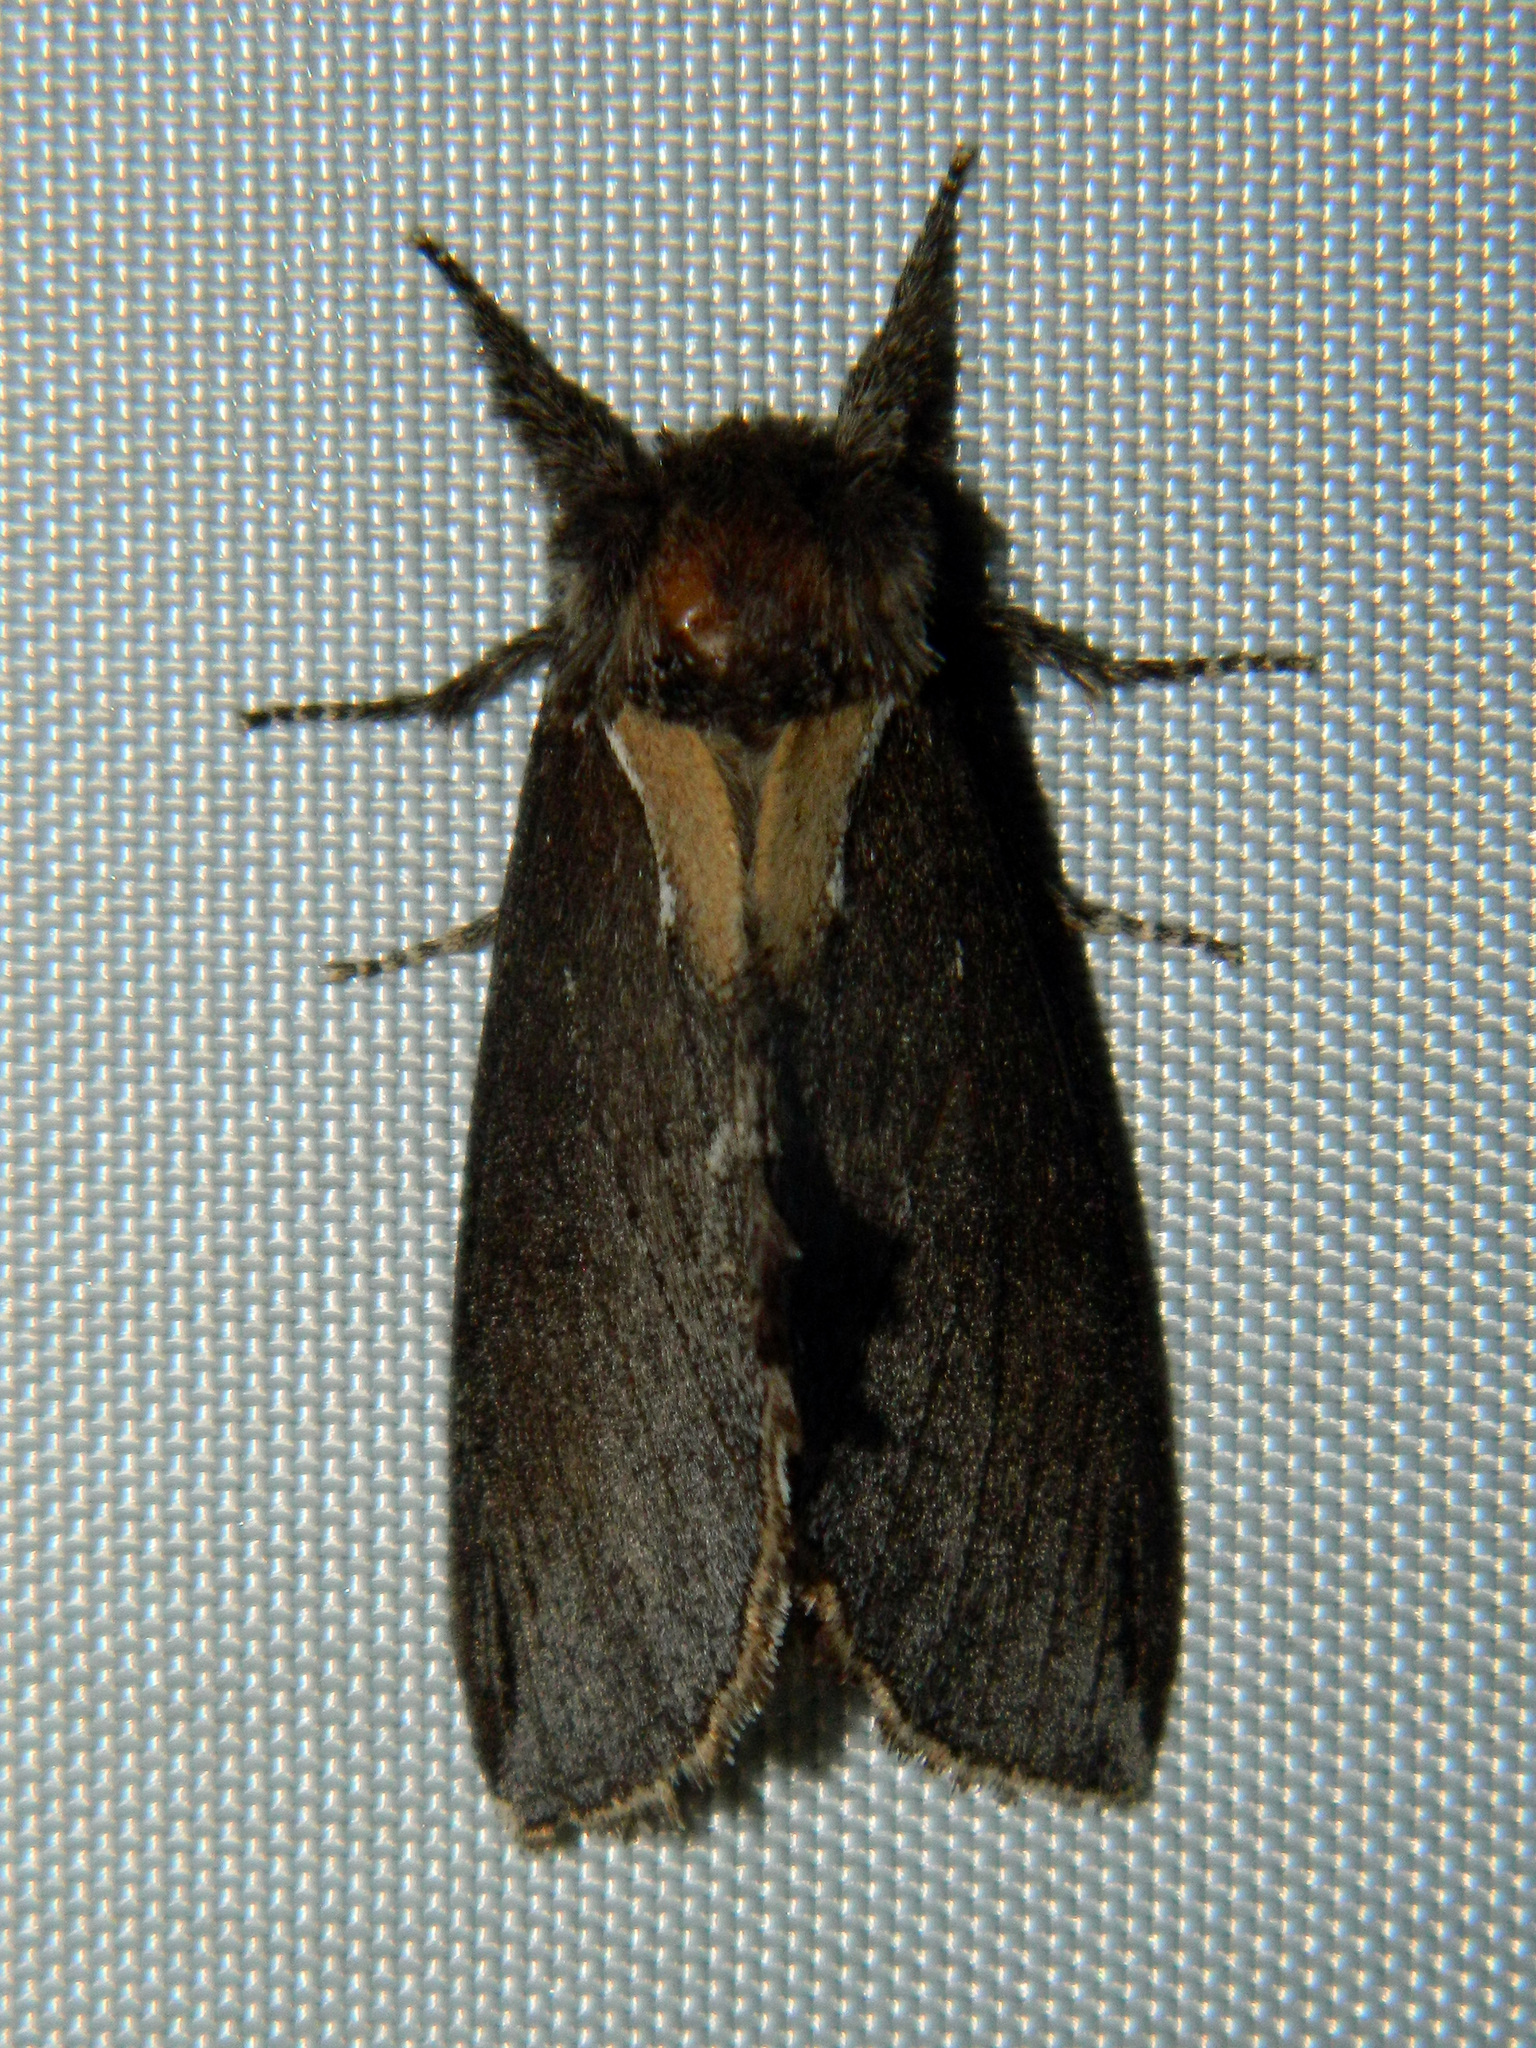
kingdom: Animalia
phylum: Arthropoda
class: Insecta
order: Lepidoptera
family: Notodontidae
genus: Pheosidea
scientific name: Pheosidea elegans
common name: Elegant prominent
